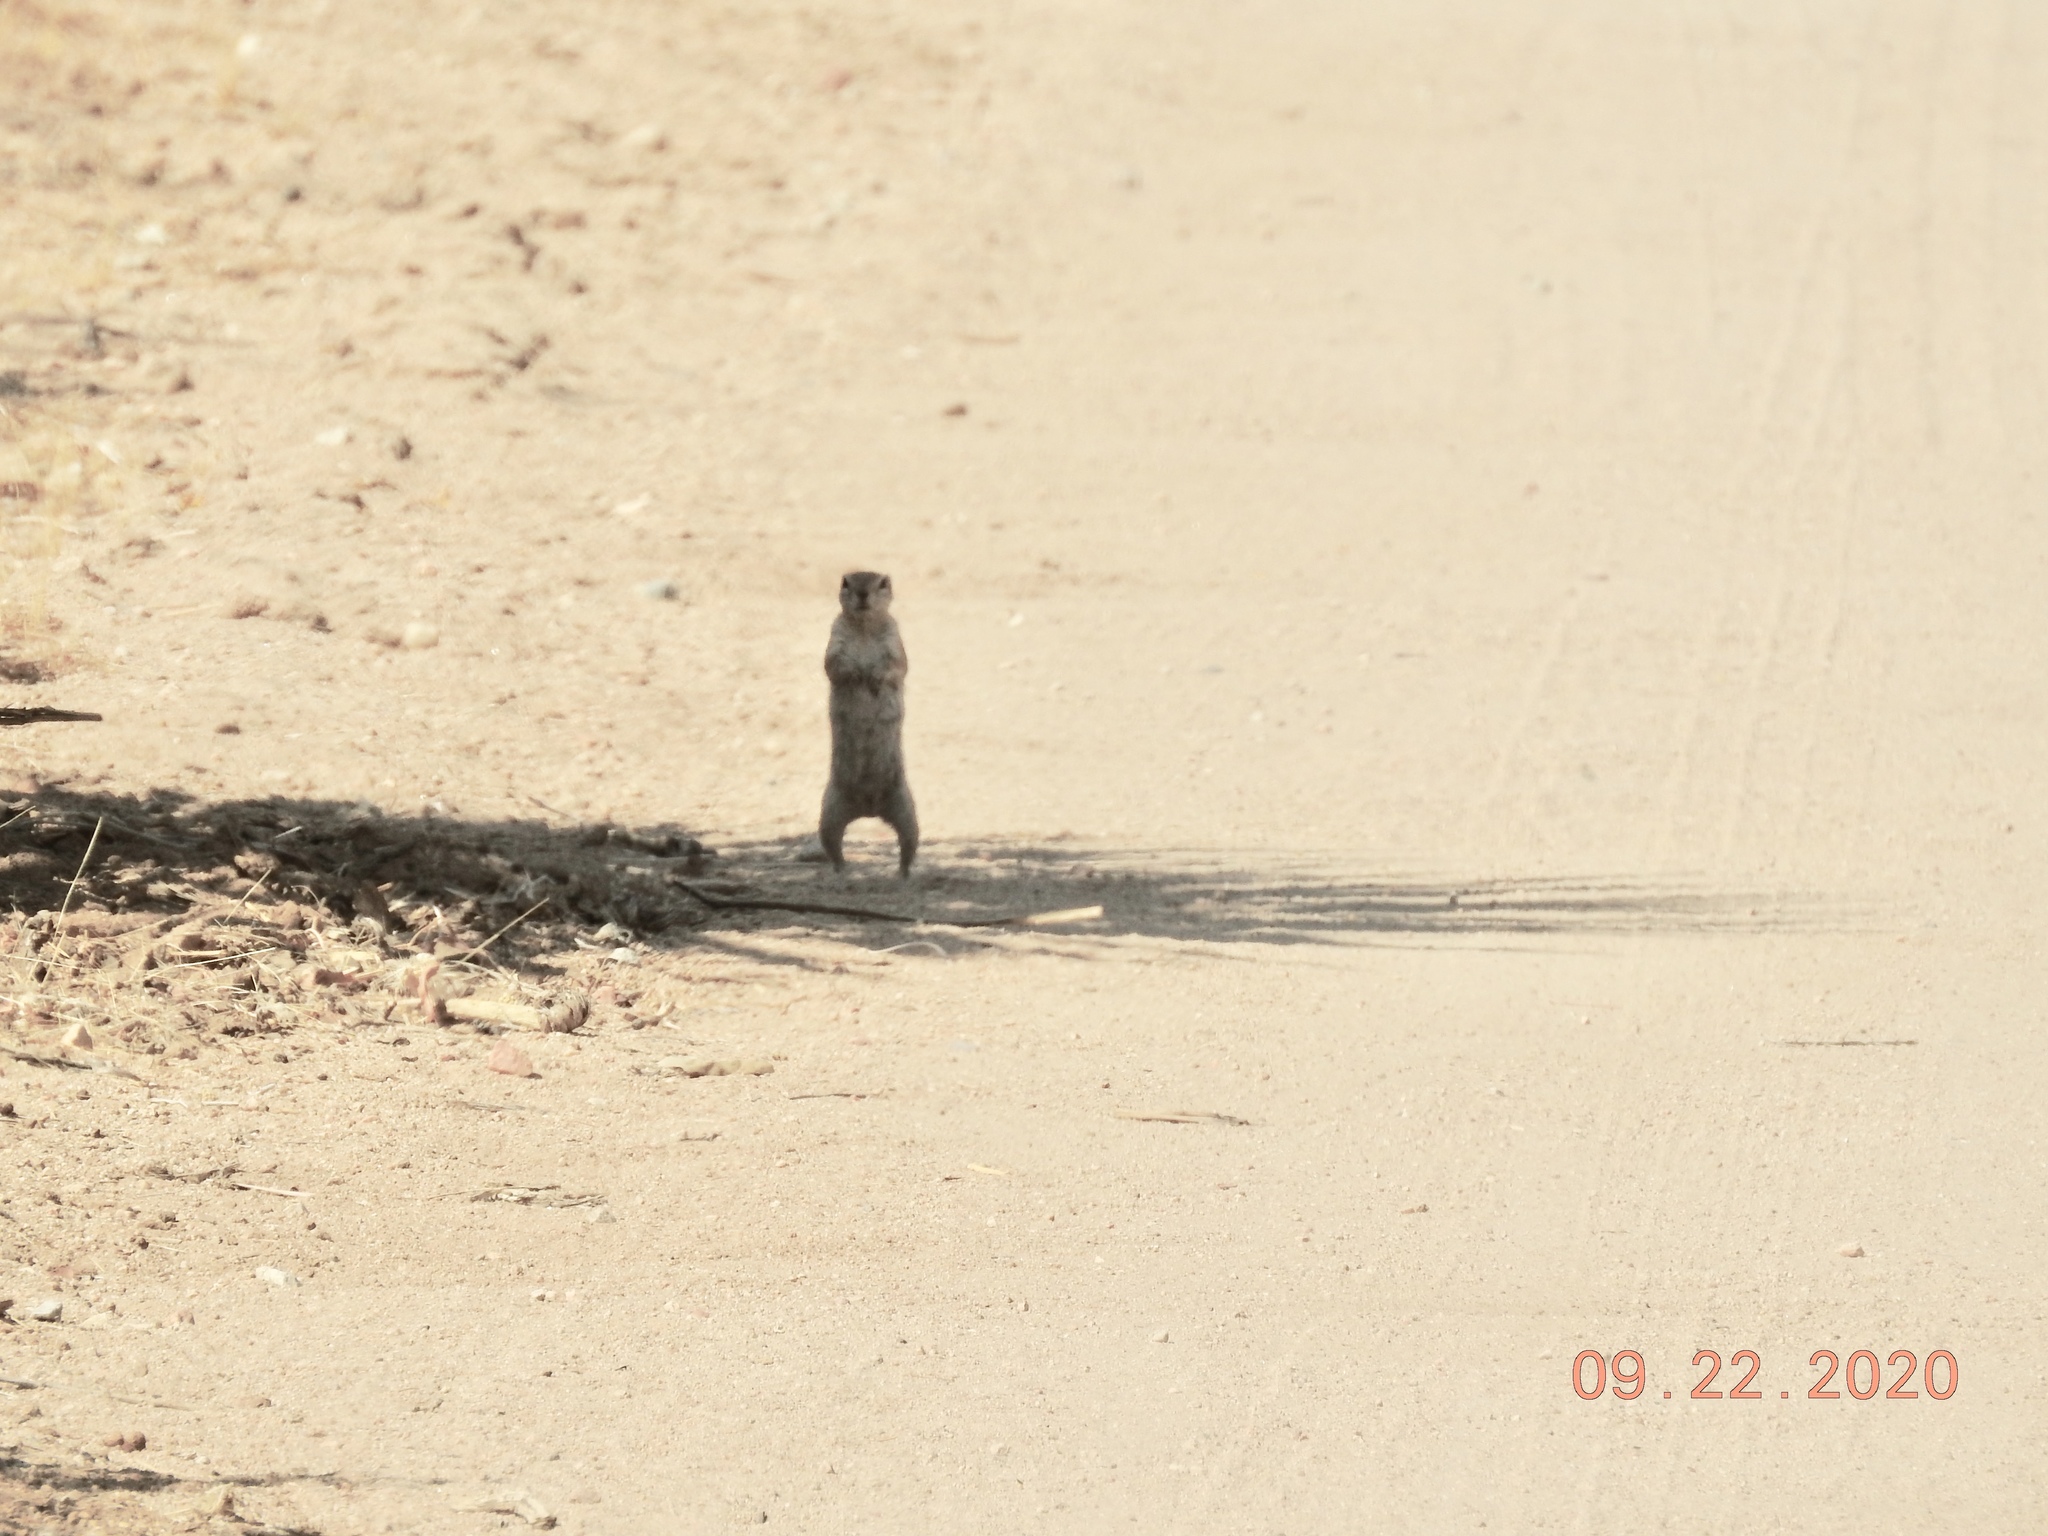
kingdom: Animalia
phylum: Chordata
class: Mammalia
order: Rodentia
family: Sciuridae
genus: Ammospermophilus
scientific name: Ammospermophilus leucurus
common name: White-tailed antelope squirrel
